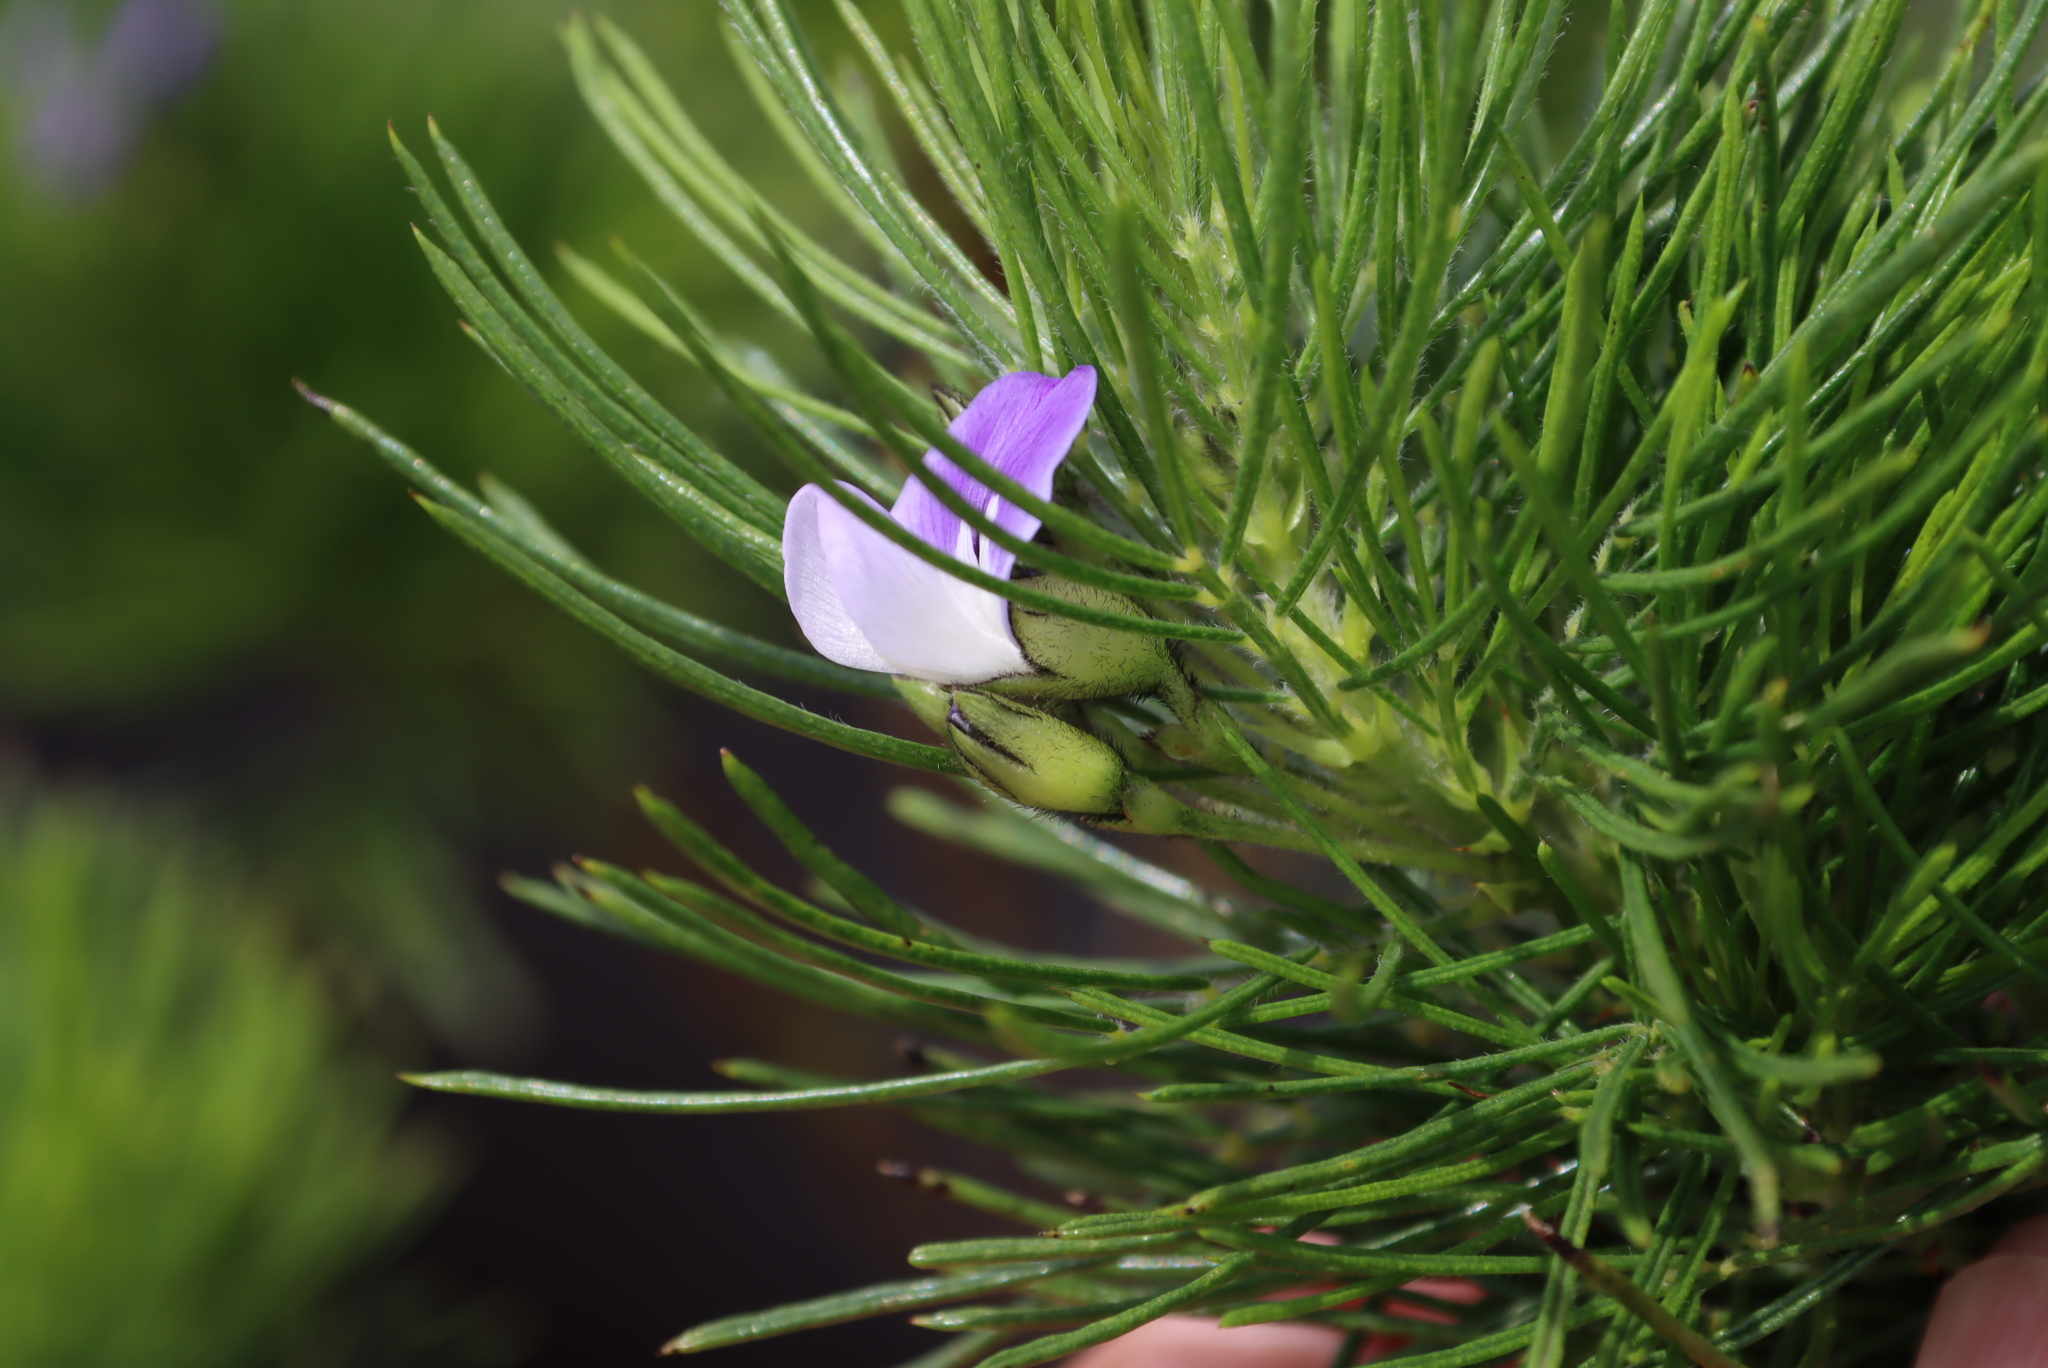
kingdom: Plantae
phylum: Tracheophyta
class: Magnoliopsida
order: Fabales
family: Fabaceae
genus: Psoralea
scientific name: Psoralea pinnata
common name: African scurfpea
